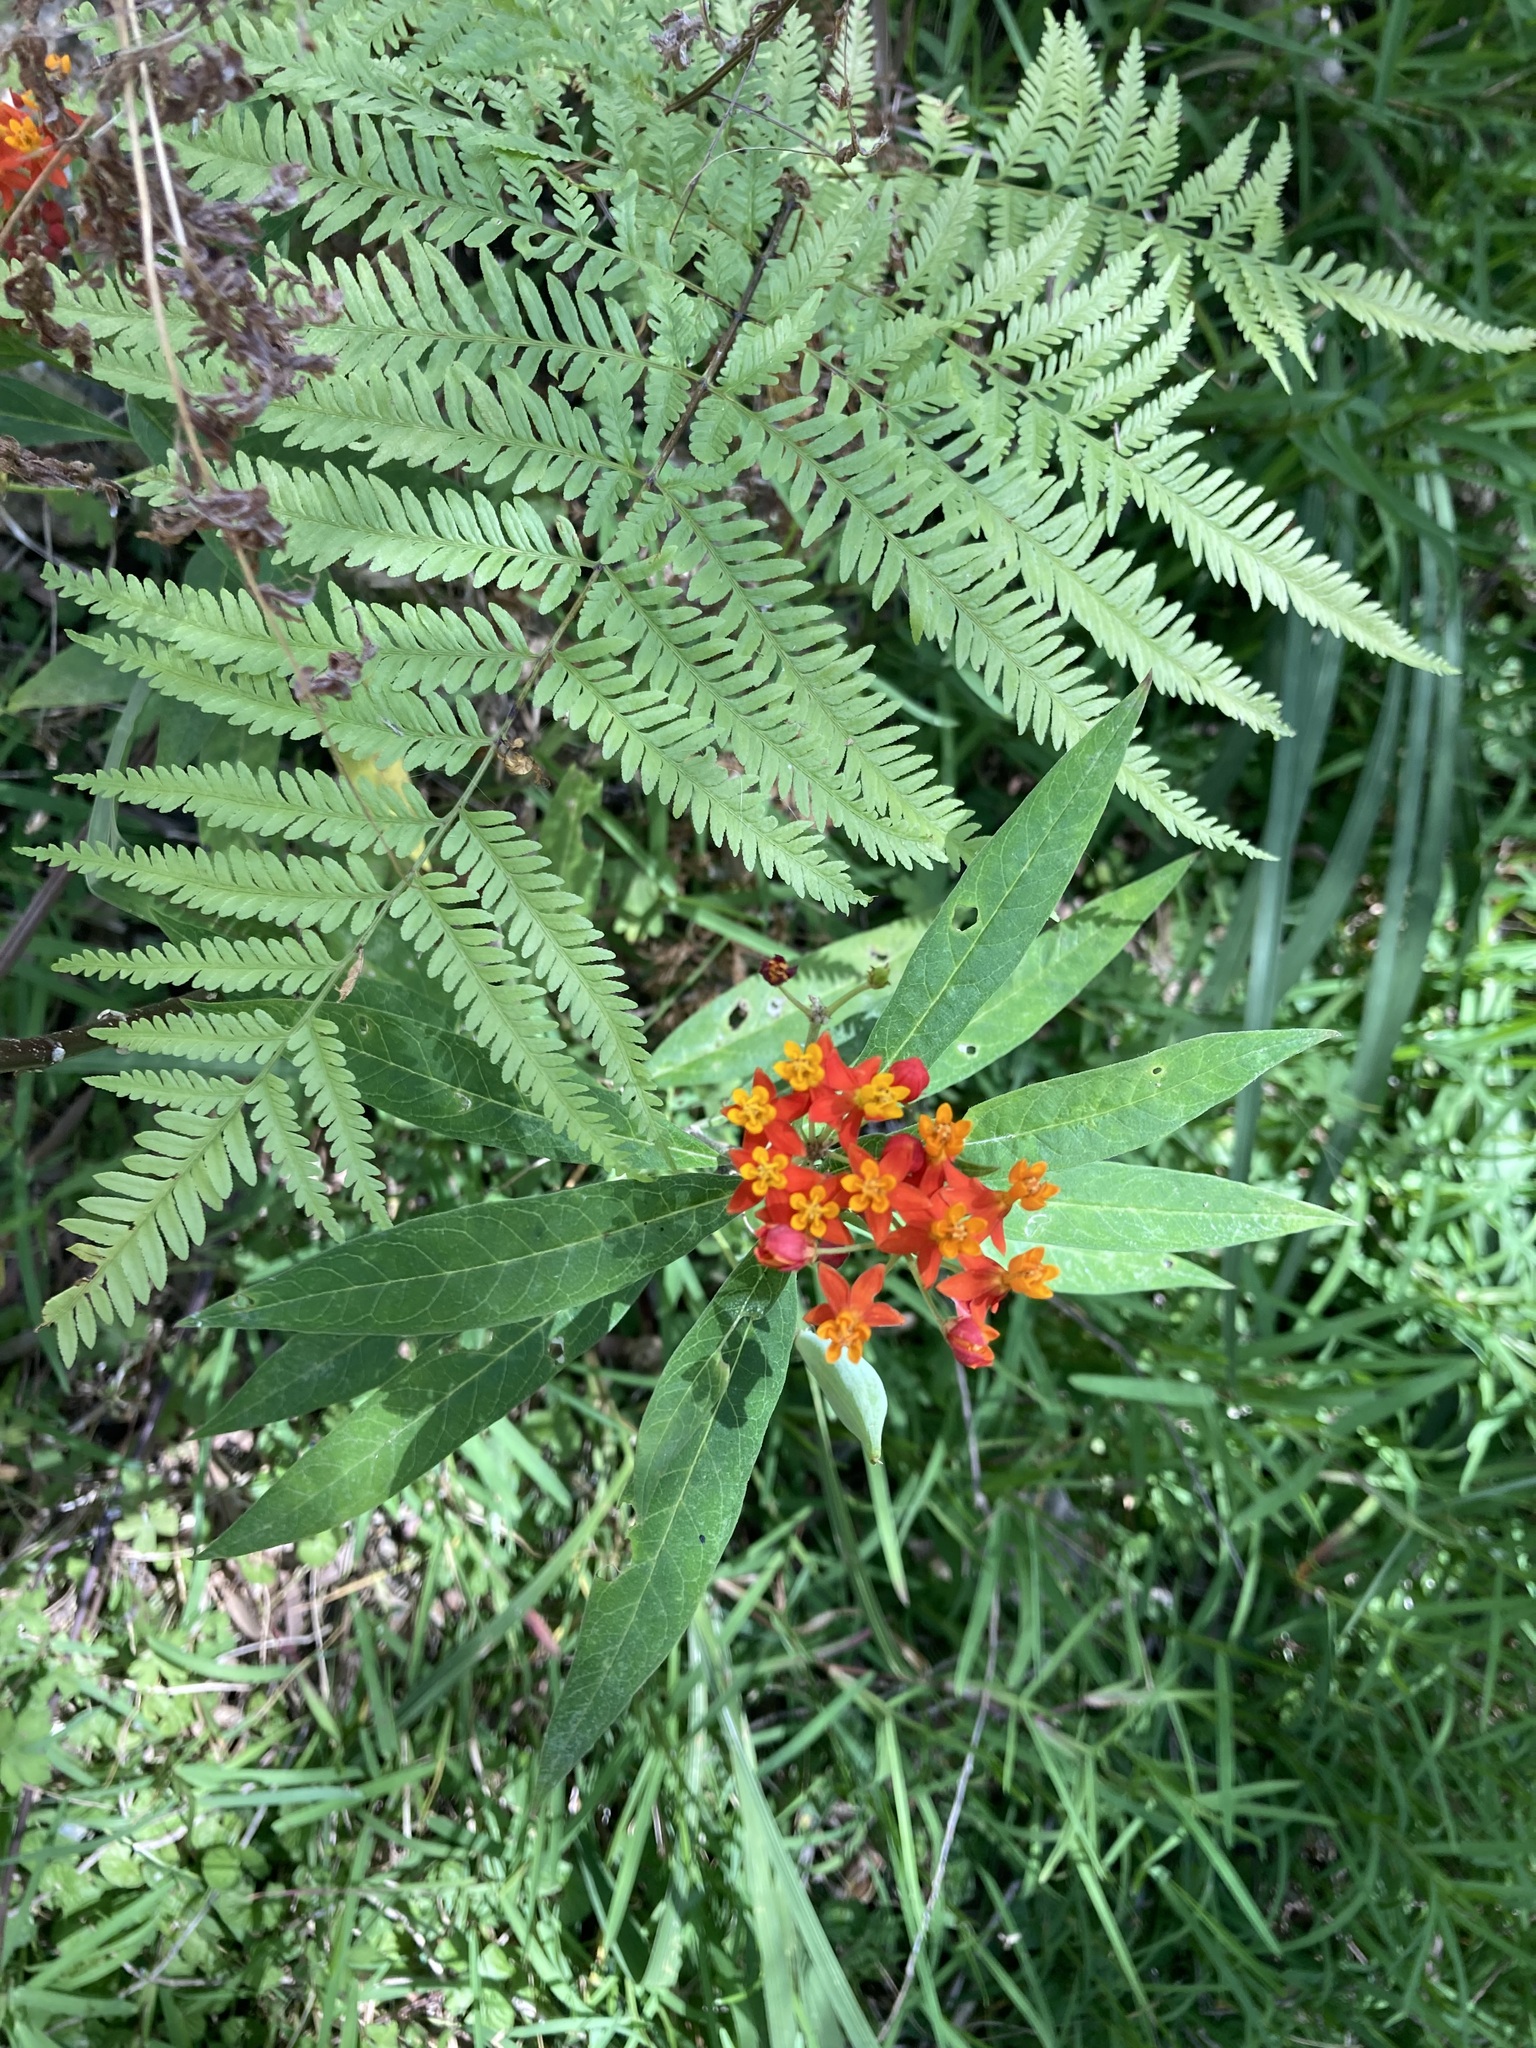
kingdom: Plantae
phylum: Tracheophyta
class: Magnoliopsida
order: Gentianales
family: Apocynaceae
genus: Asclepias
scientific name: Asclepias curassavica
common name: Bloodflower
